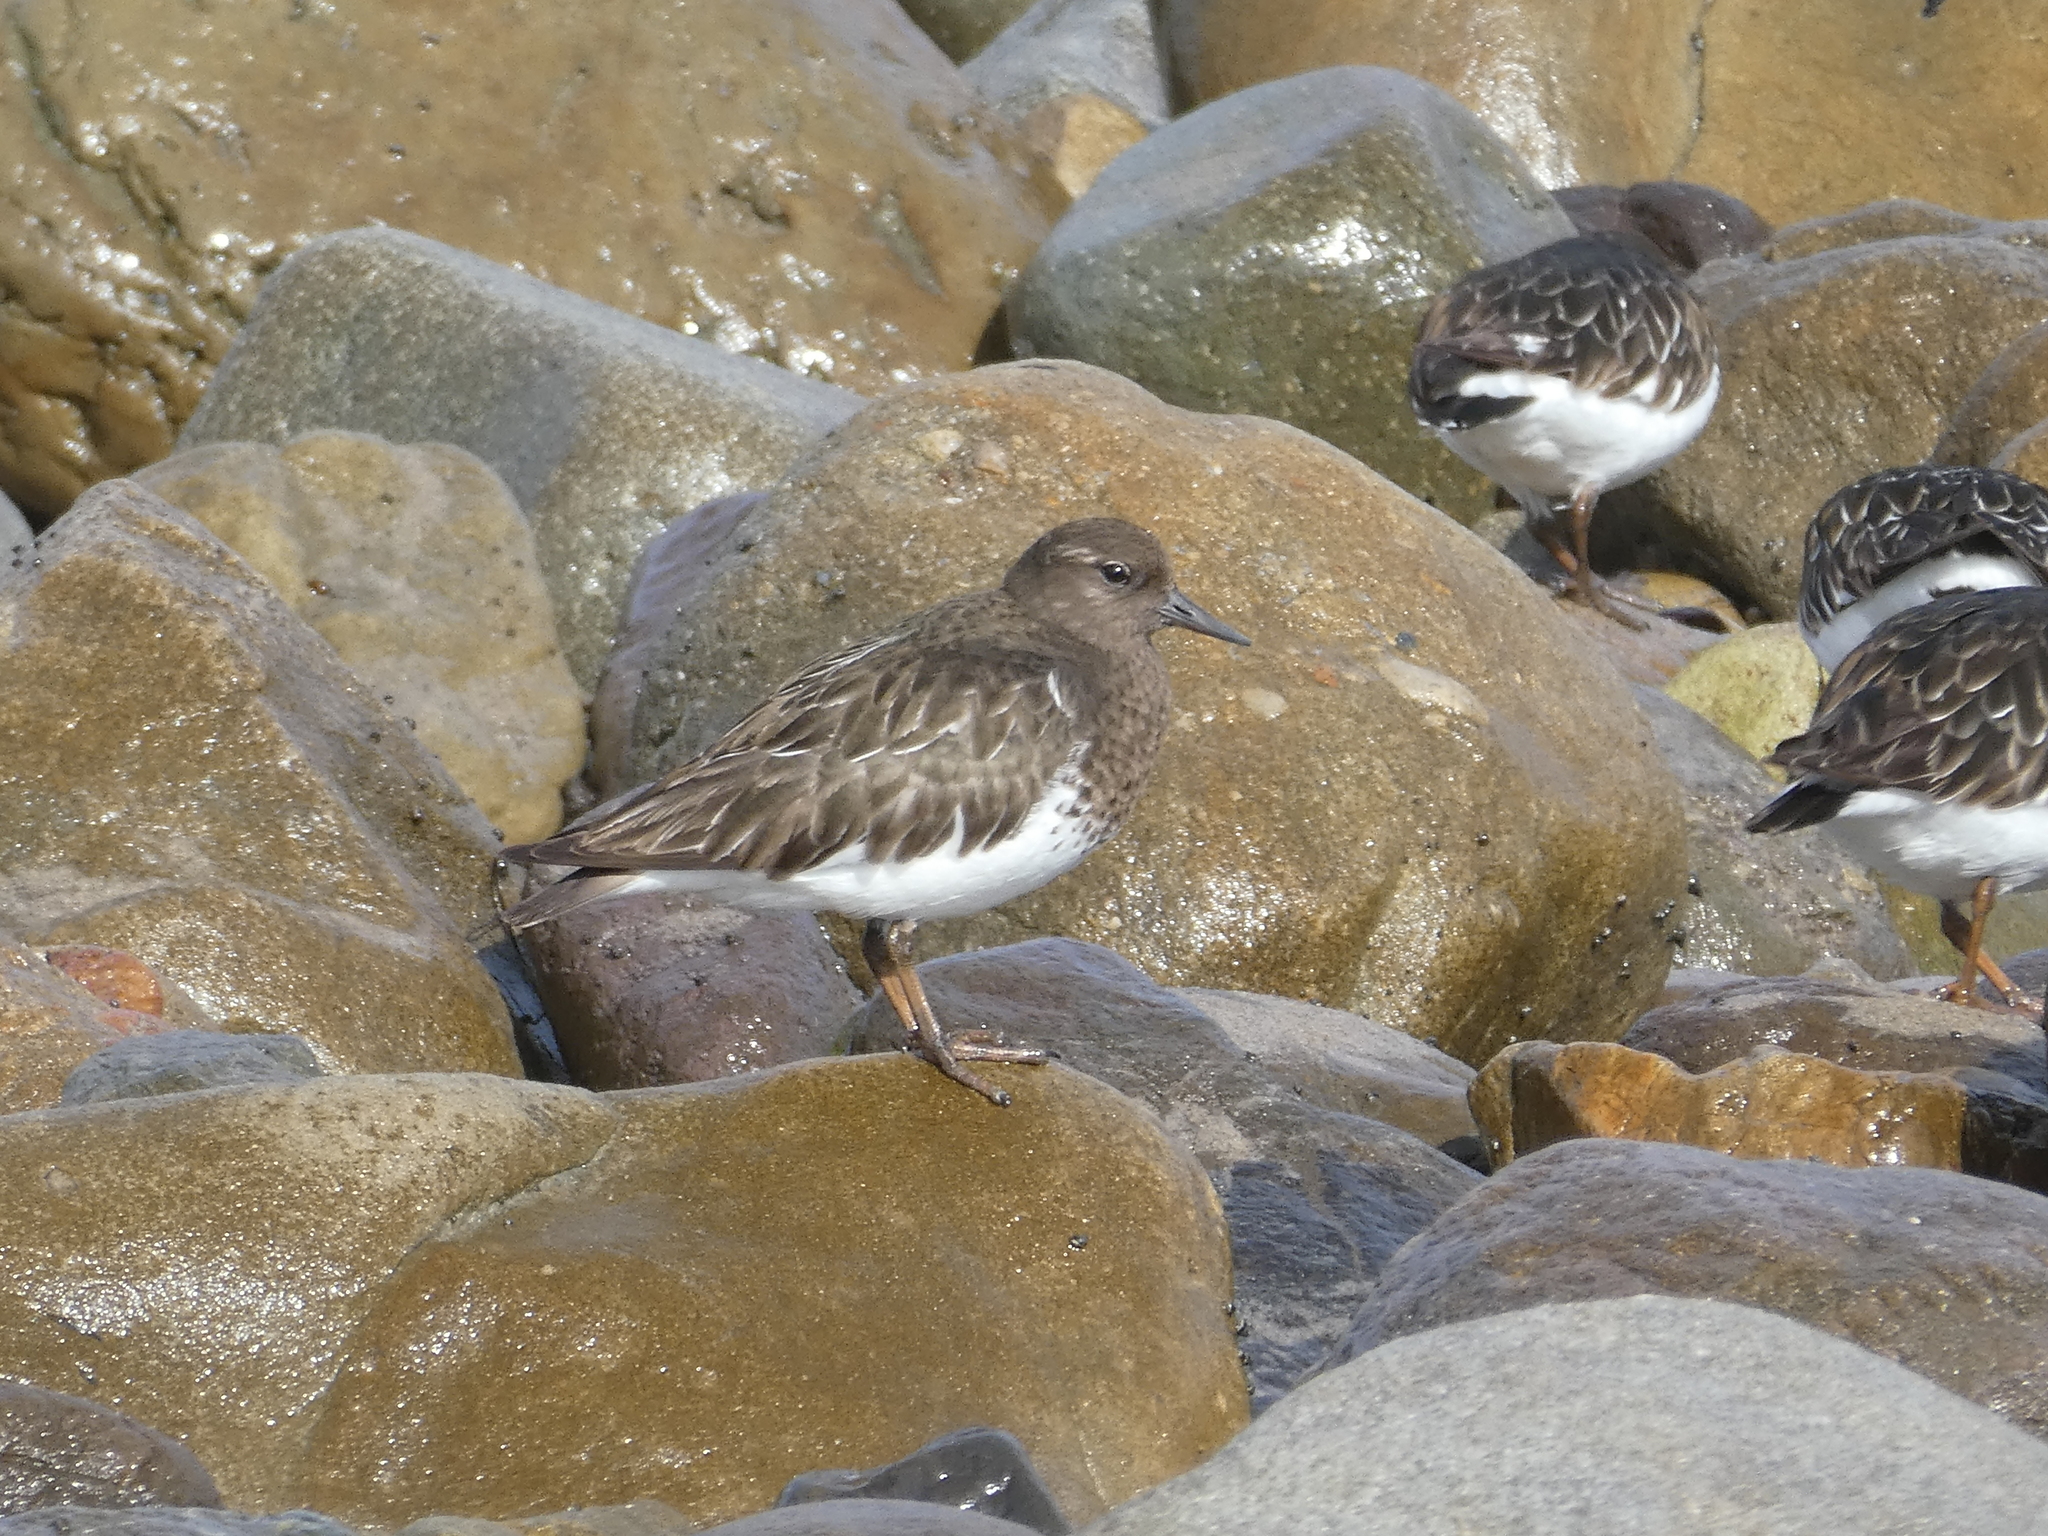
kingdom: Animalia
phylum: Chordata
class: Aves
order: Charadriiformes
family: Scolopacidae
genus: Arenaria
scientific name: Arenaria melanocephala
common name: Black turnstone
